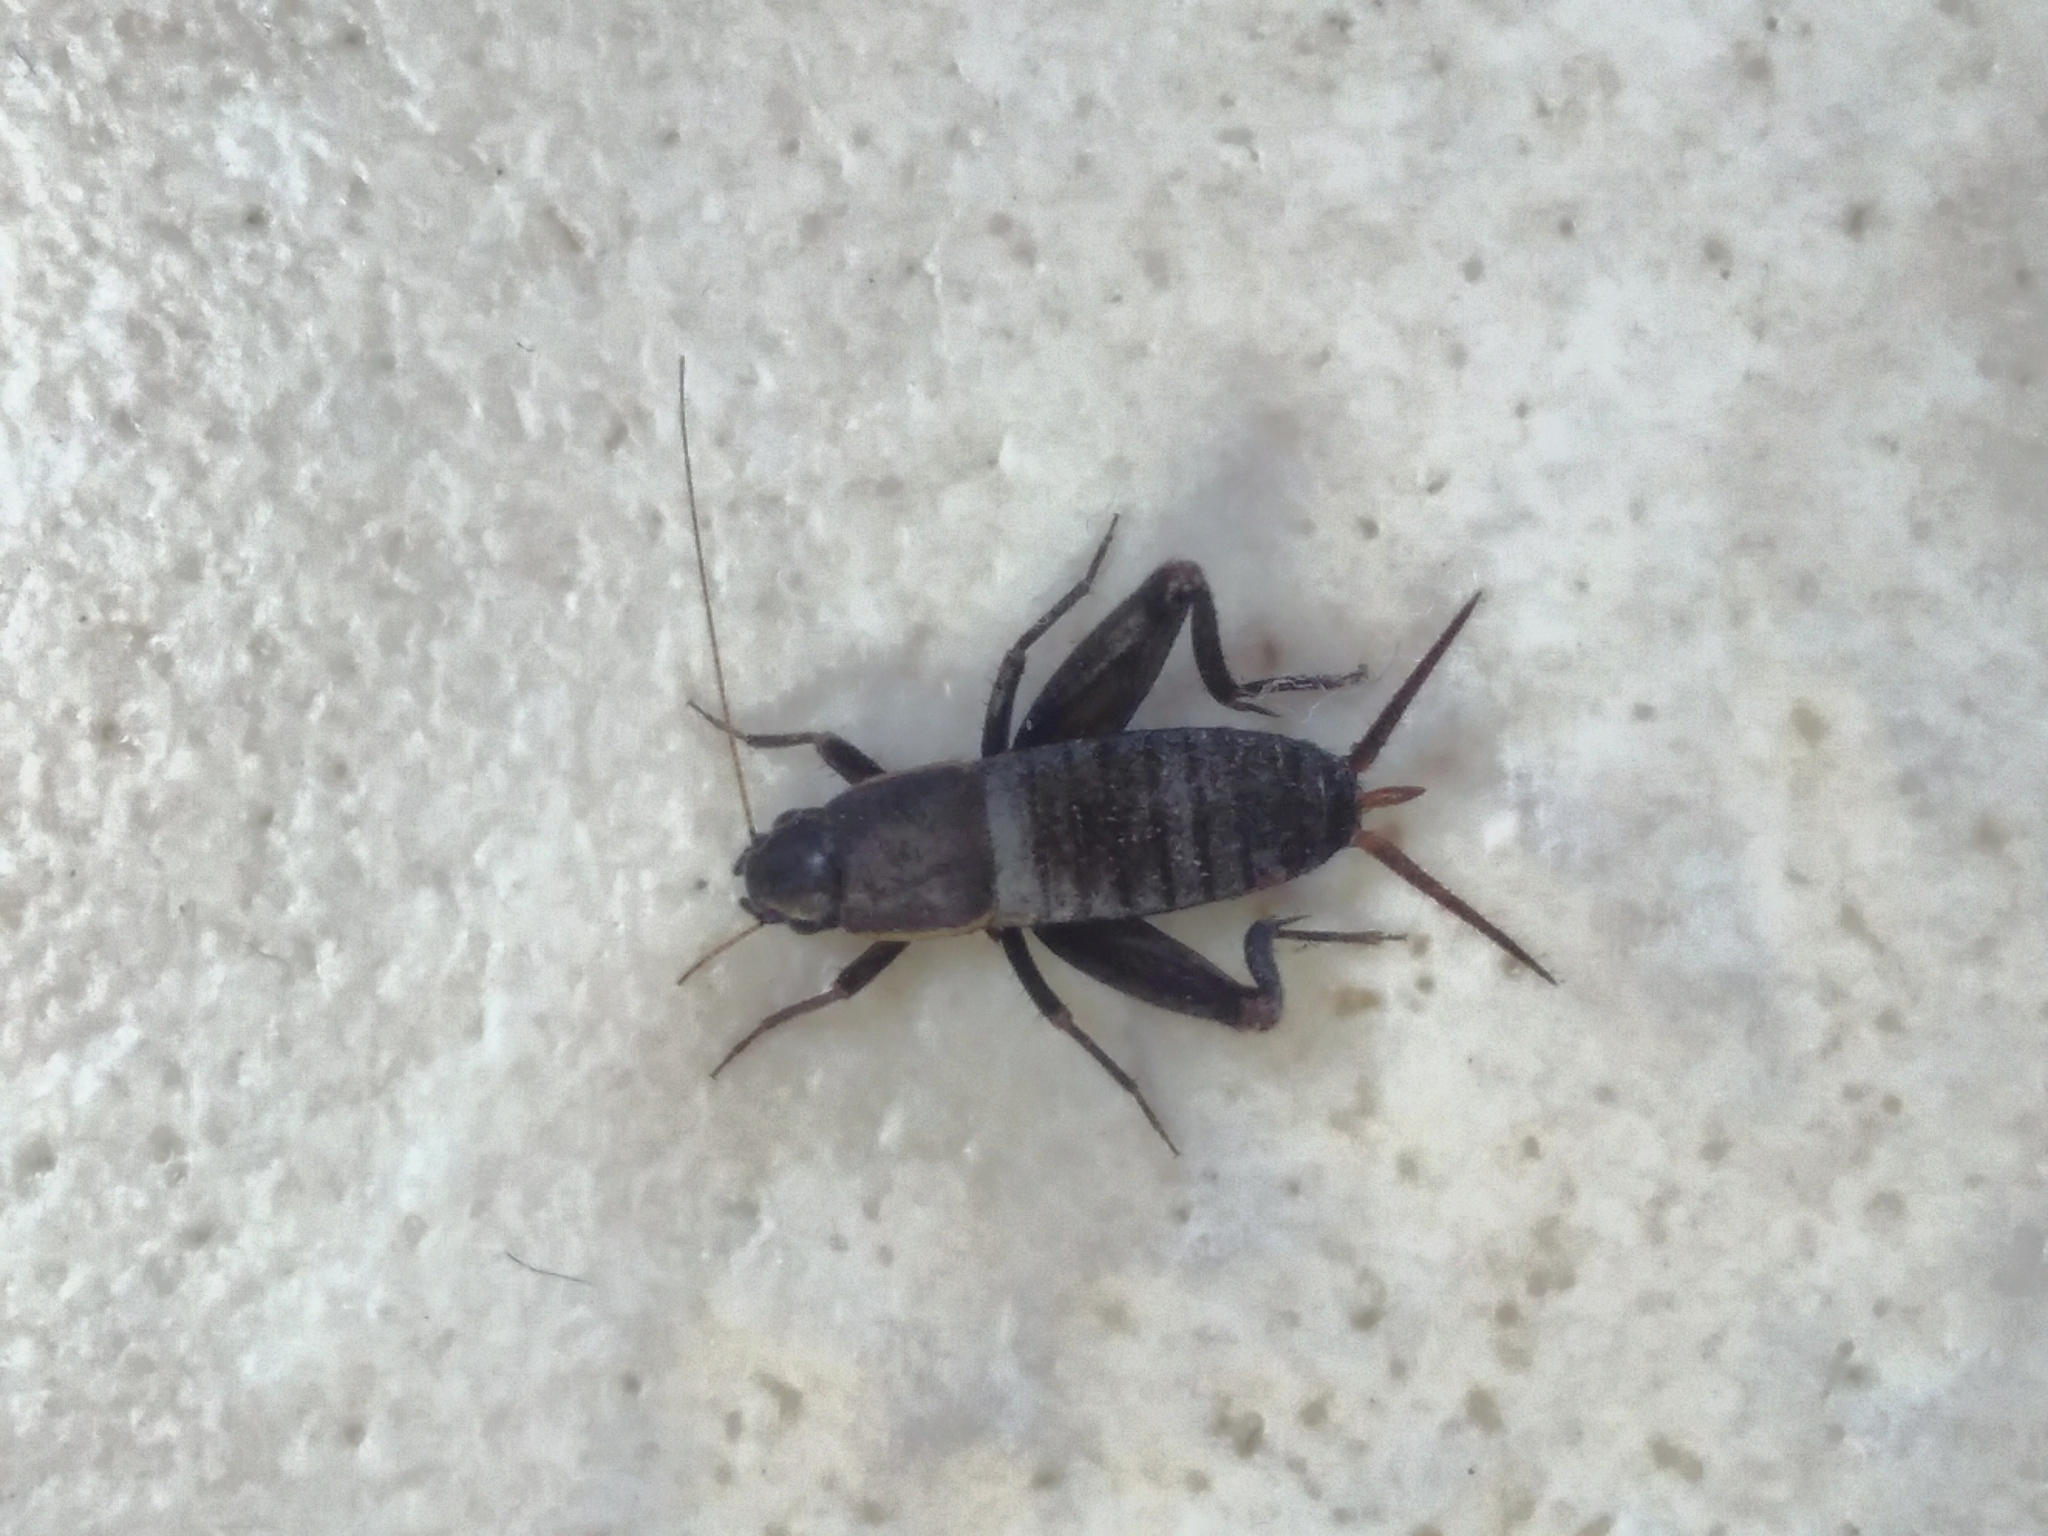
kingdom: Animalia
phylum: Arthropoda
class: Insecta
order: Orthoptera
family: Mogoplistidae
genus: Mogoplistes
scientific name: Mogoplistes brunneus
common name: Brown scale-cricket
